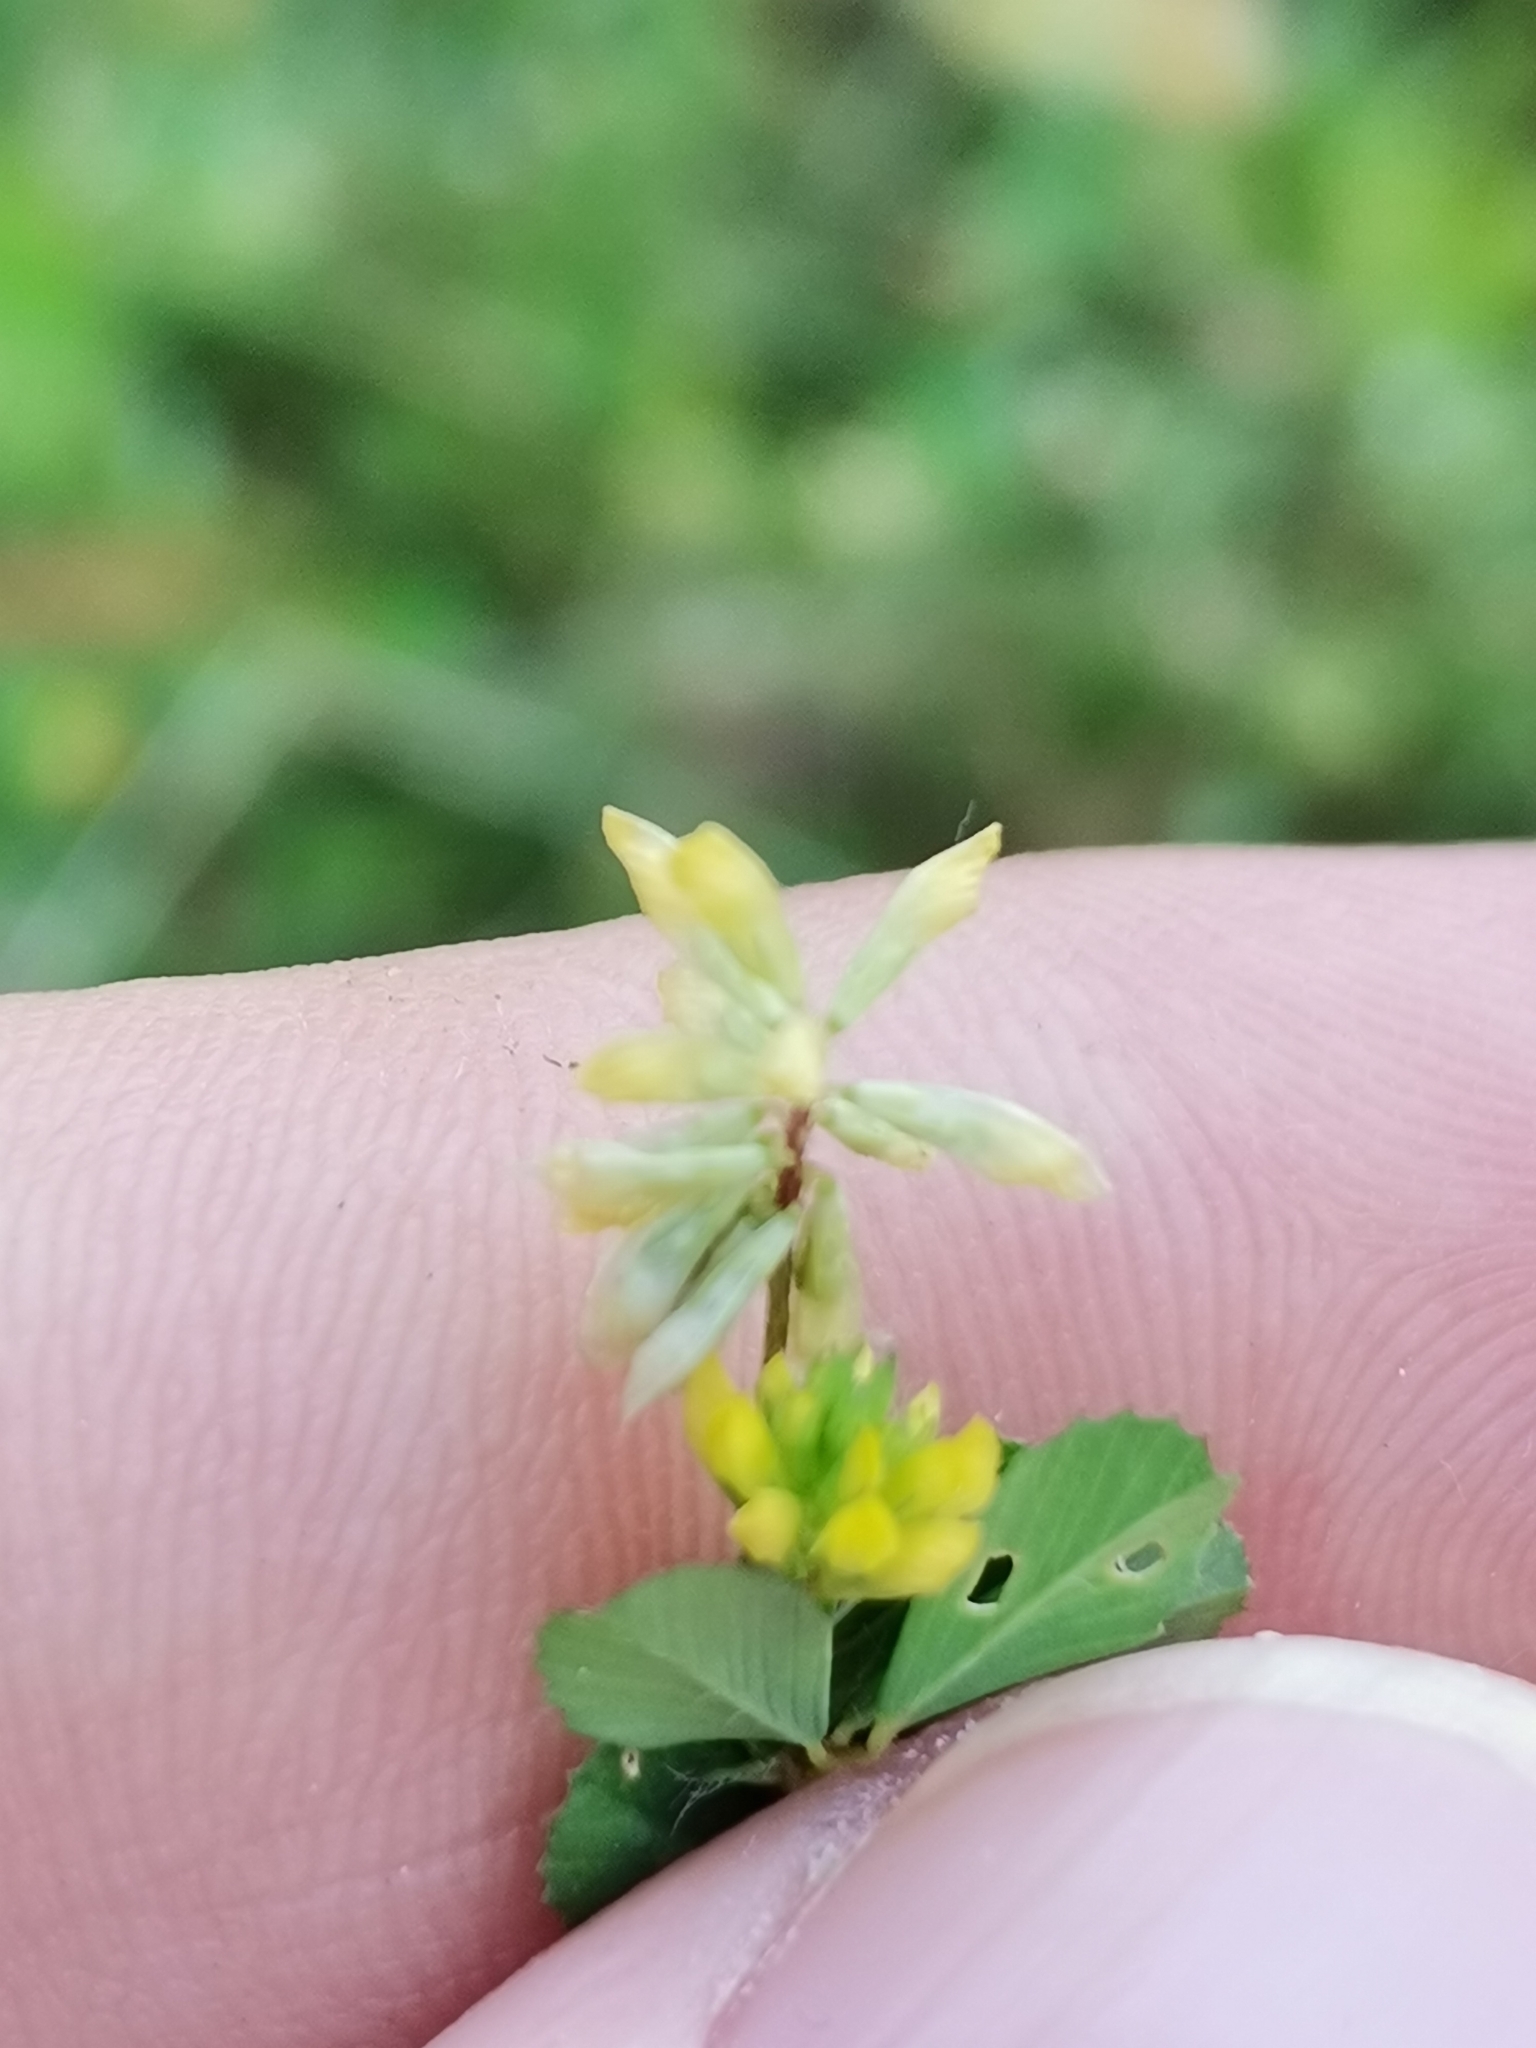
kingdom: Plantae
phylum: Tracheophyta
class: Magnoliopsida
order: Fabales
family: Fabaceae
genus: Trifolium
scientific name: Trifolium dubium
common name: Suckling clover
